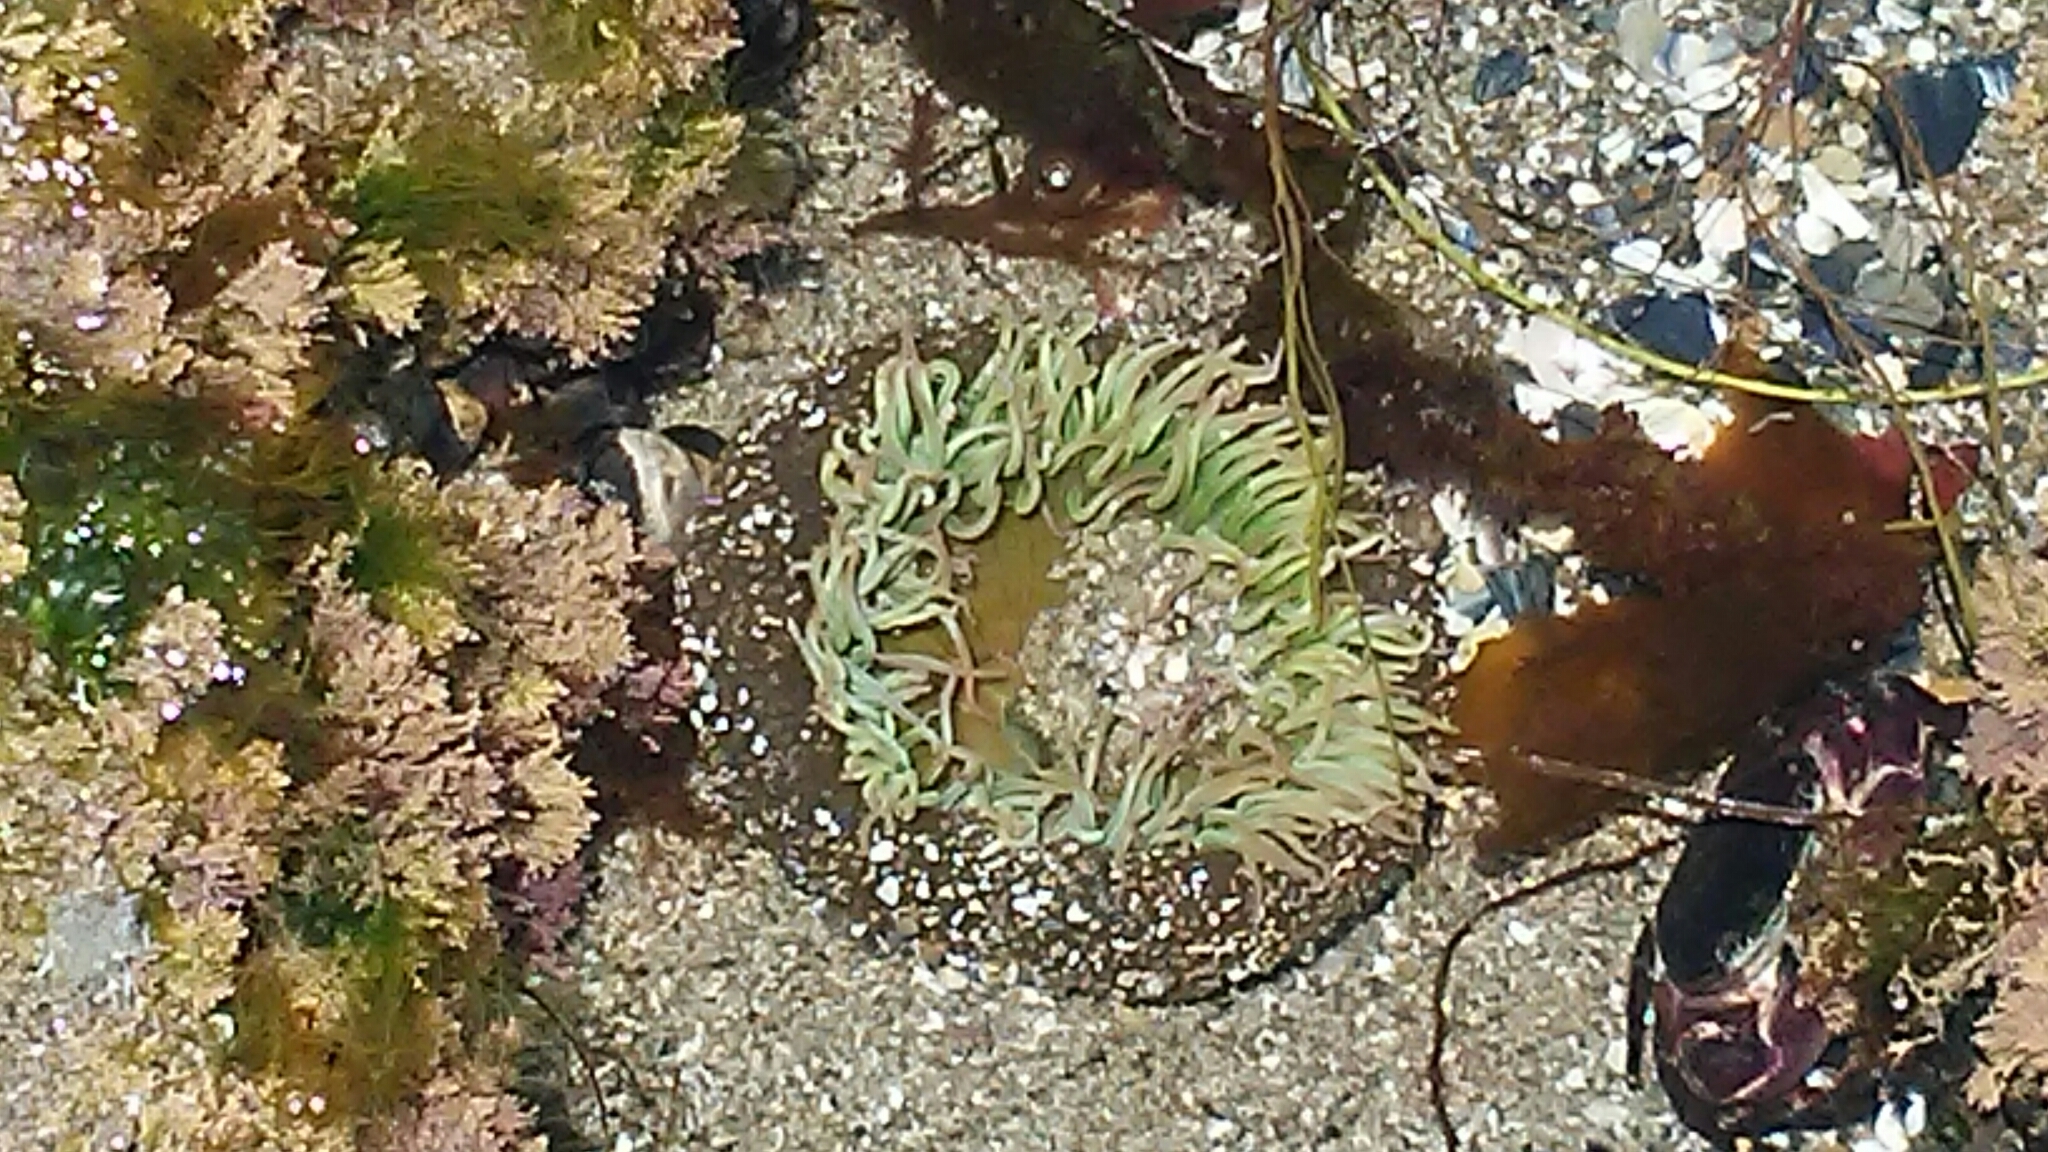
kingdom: Animalia
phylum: Cnidaria
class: Anthozoa
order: Actiniaria
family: Actiniidae
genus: Anthopleura
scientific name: Anthopleura xanthogrammica
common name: Giant green anemone
